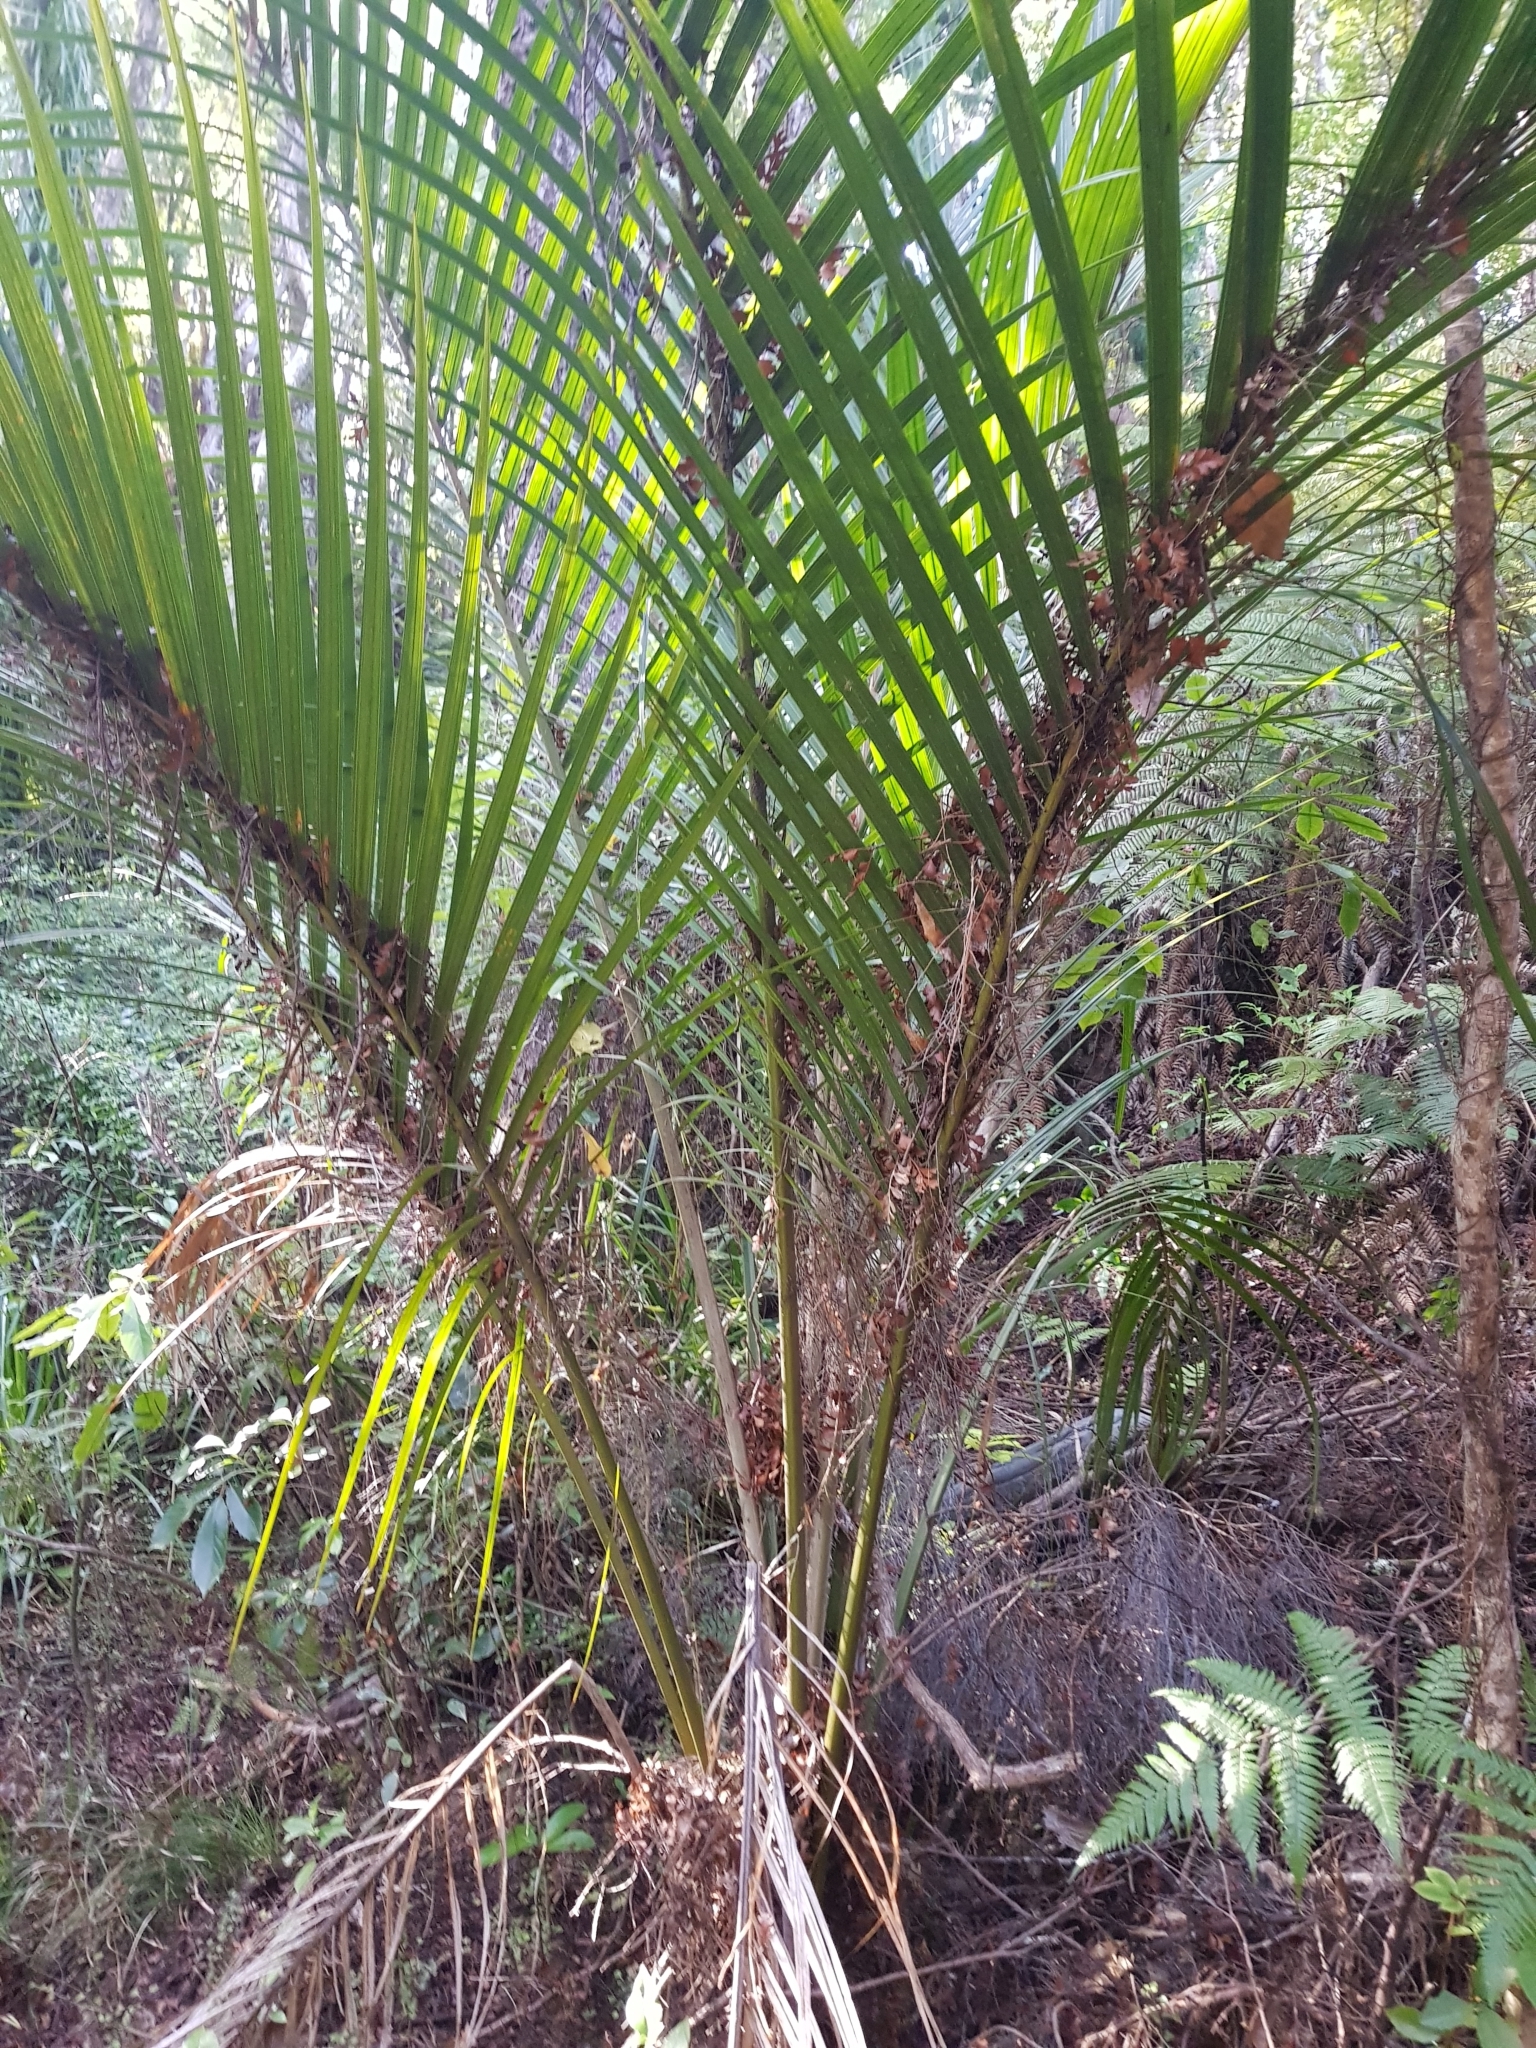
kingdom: Plantae
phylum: Tracheophyta
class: Liliopsida
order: Arecales
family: Arecaceae
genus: Rhopalostylis
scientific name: Rhopalostylis sapida
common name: Feather-duster palm
